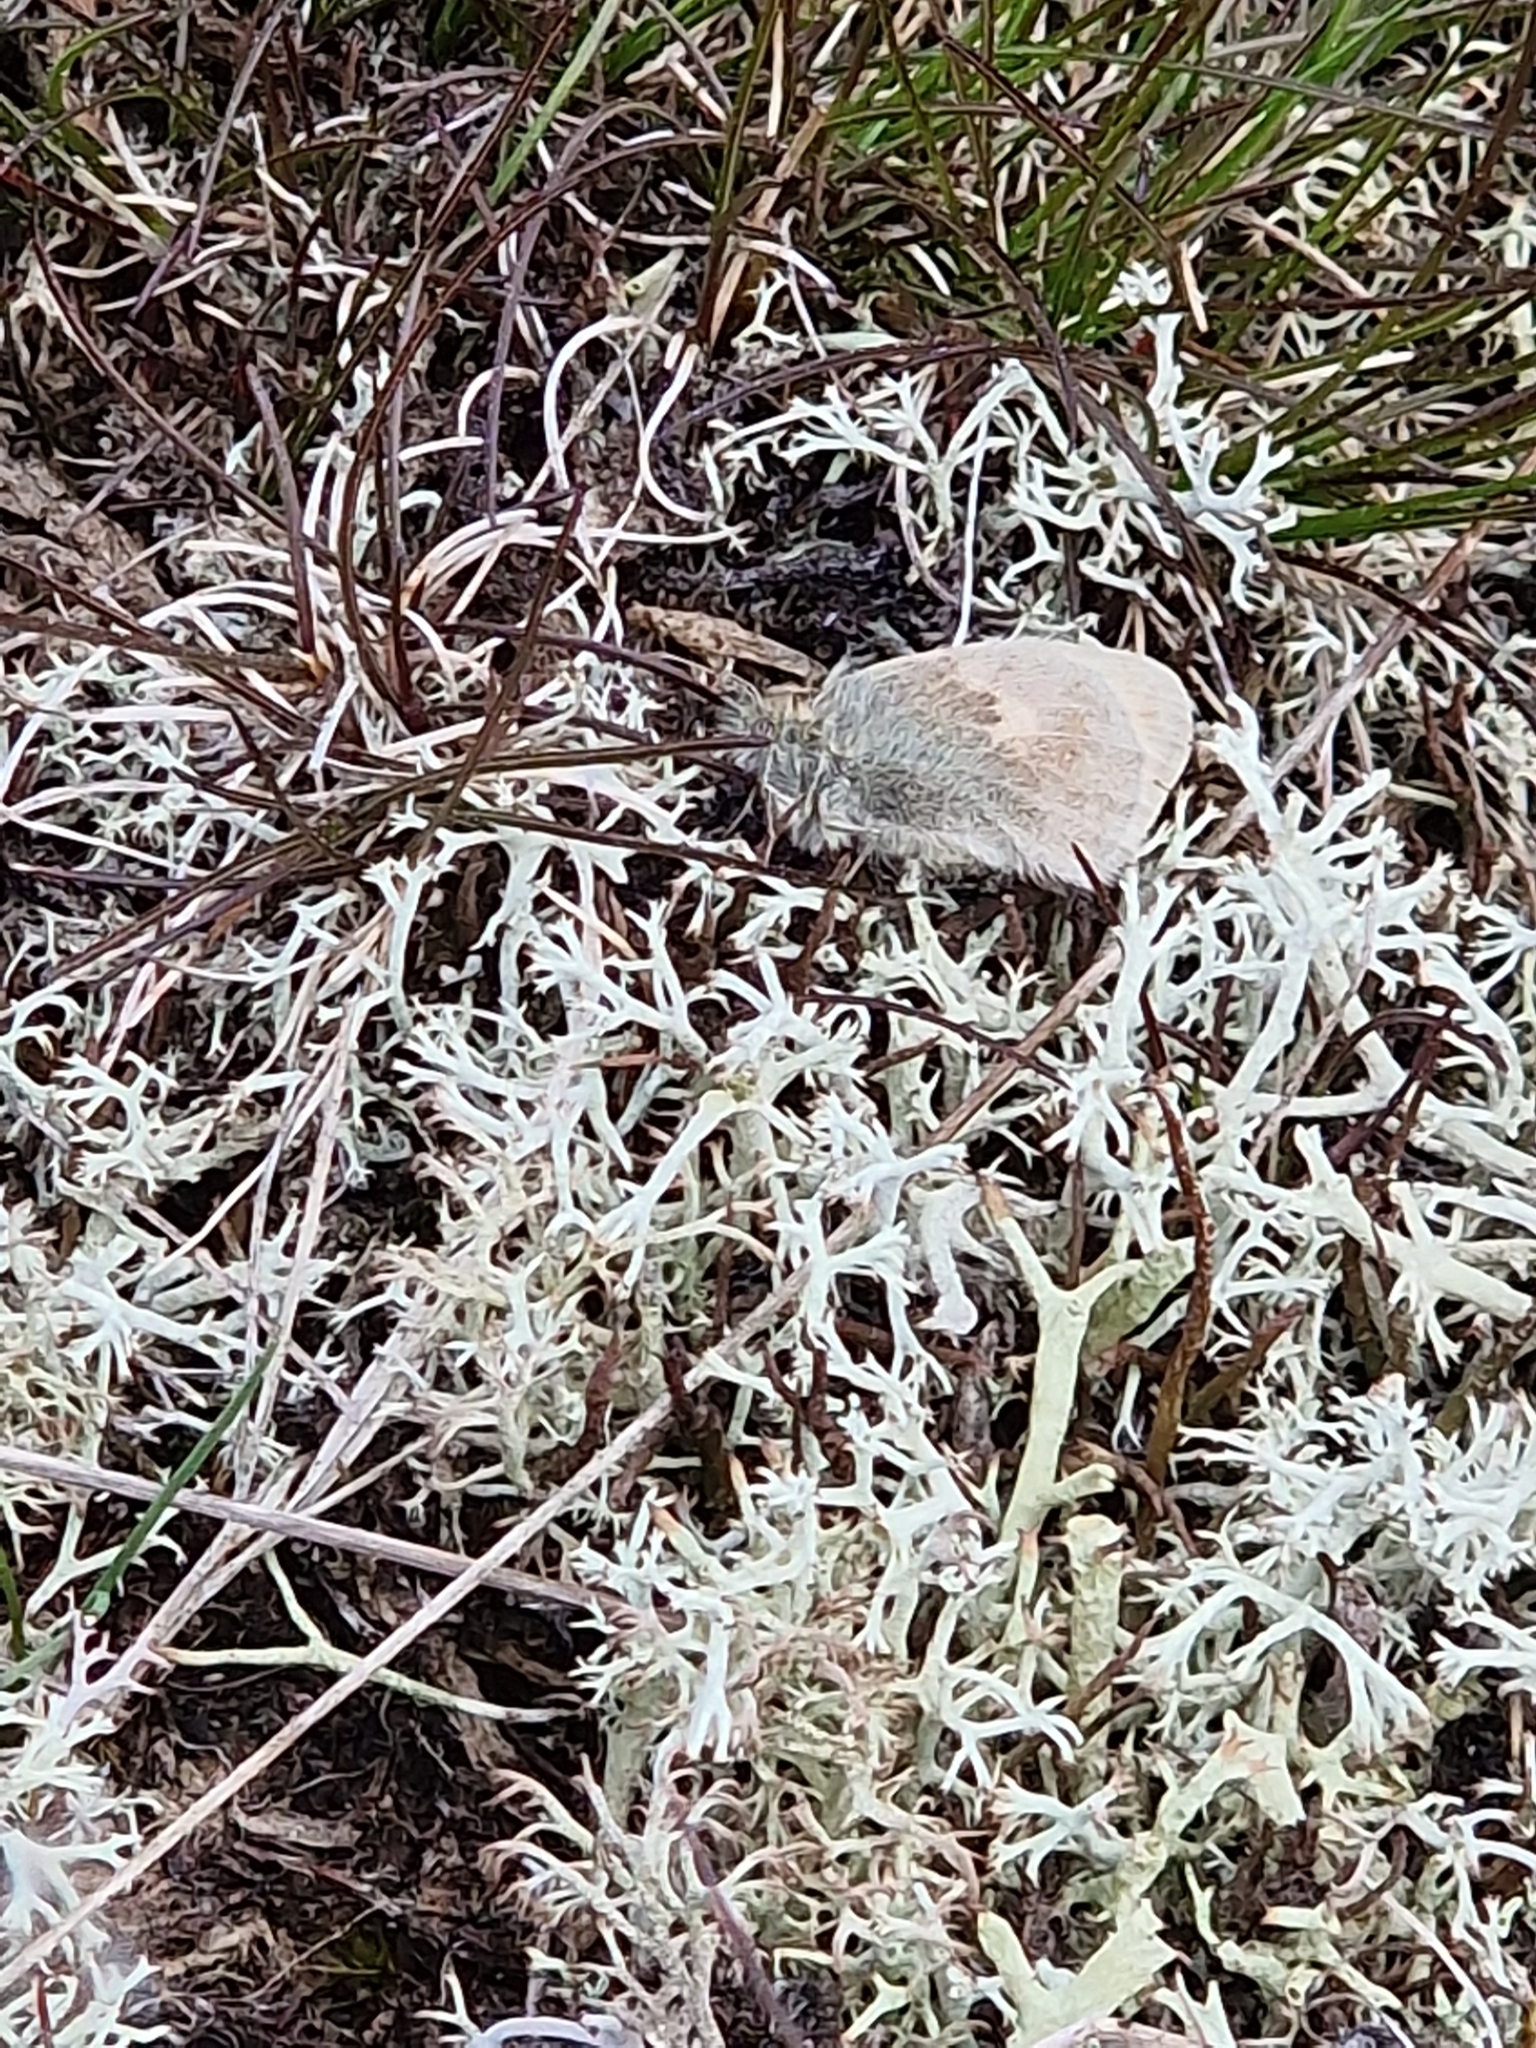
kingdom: Animalia
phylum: Arthropoda
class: Insecta
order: Lepidoptera
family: Nymphalidae
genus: Coenonympha
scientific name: Coenonympha pamphilus
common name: Small heath
